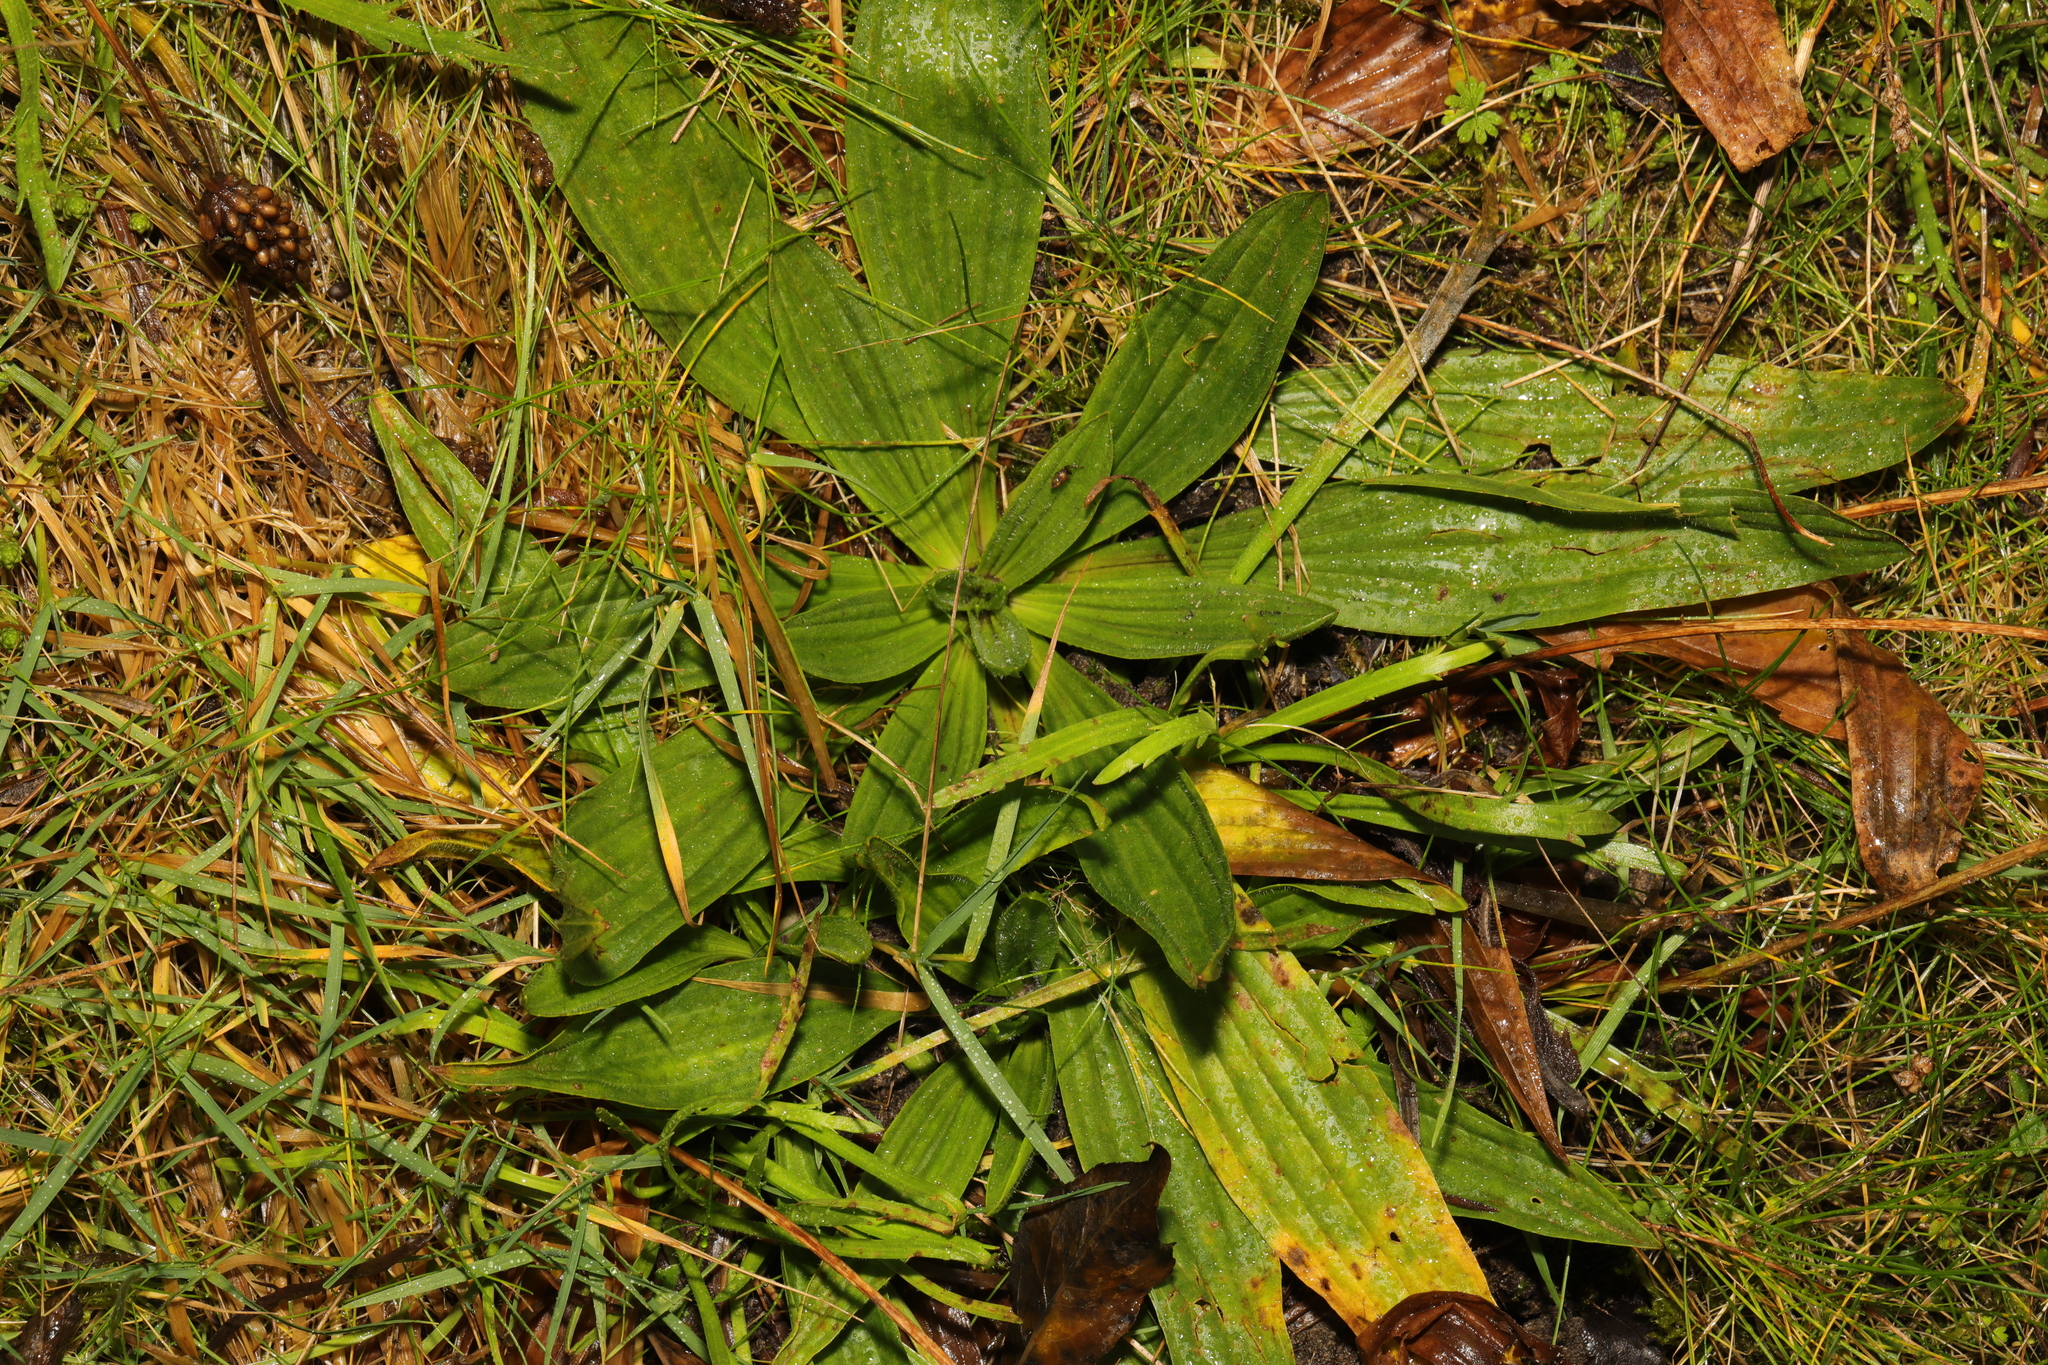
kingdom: Plantae
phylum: Tracheophyta
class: Magnoliopsida
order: Lamiales
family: Plantaginaceae
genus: Plantago
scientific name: Plantago lanceolata
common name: Ribwort plantain
